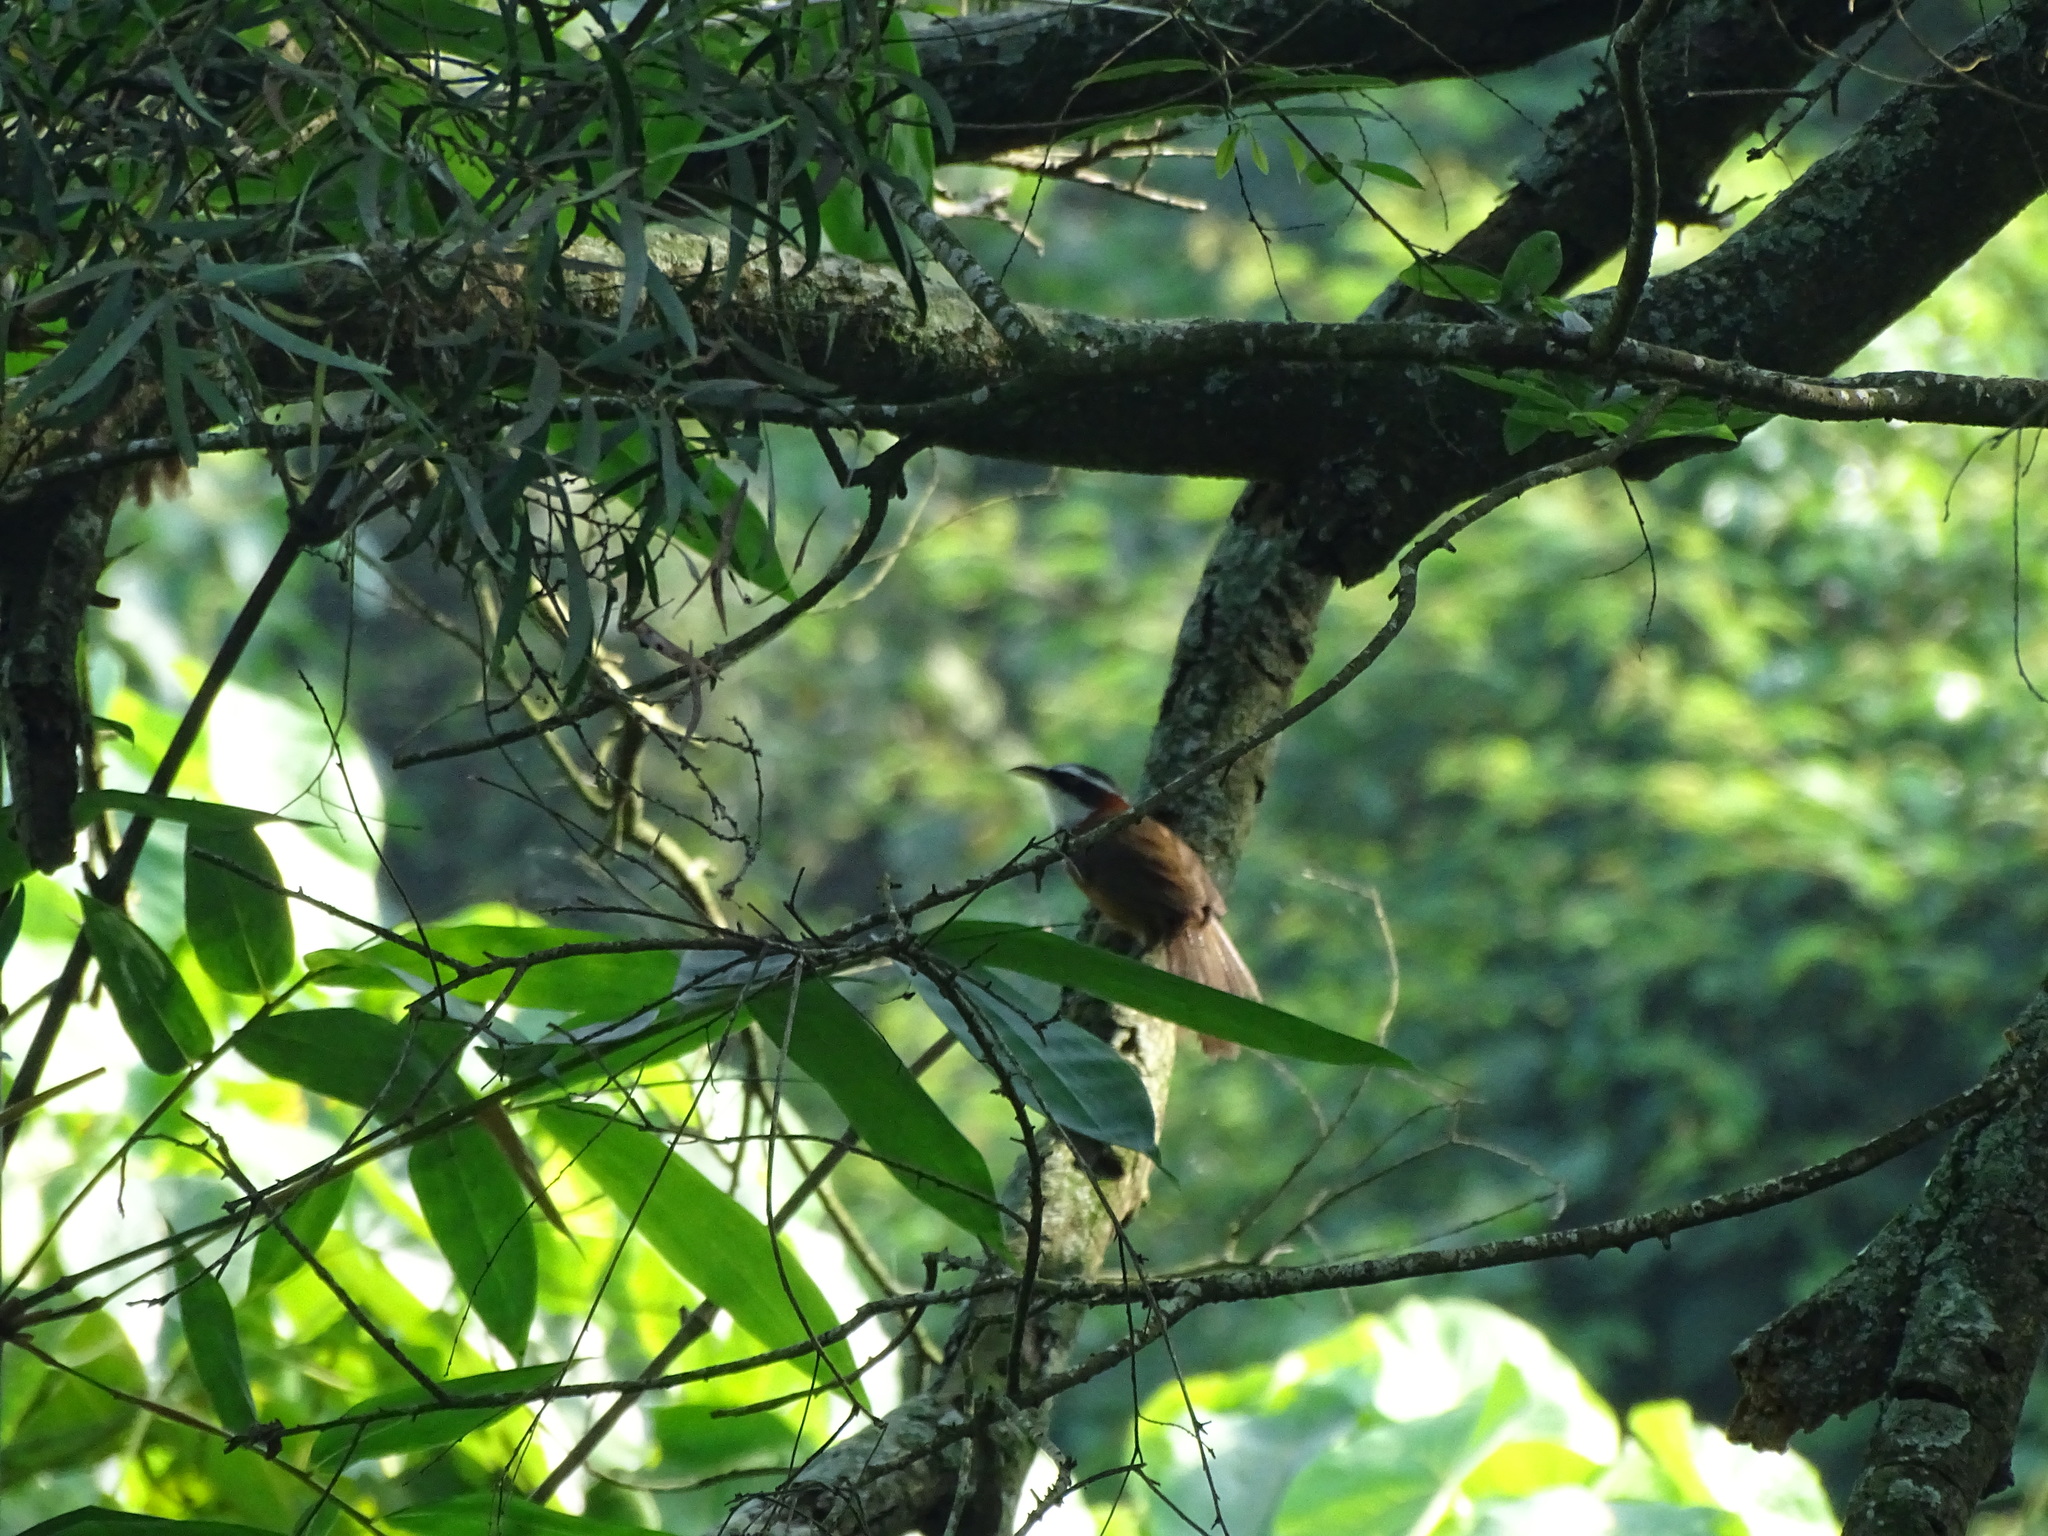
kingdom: Animalia
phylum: Chordata
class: Aves
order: Passeriformes
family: Timaliidae
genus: Pomatorhinus
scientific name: Pomatorhinus musicus
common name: Taiwan scimitar-babbler
